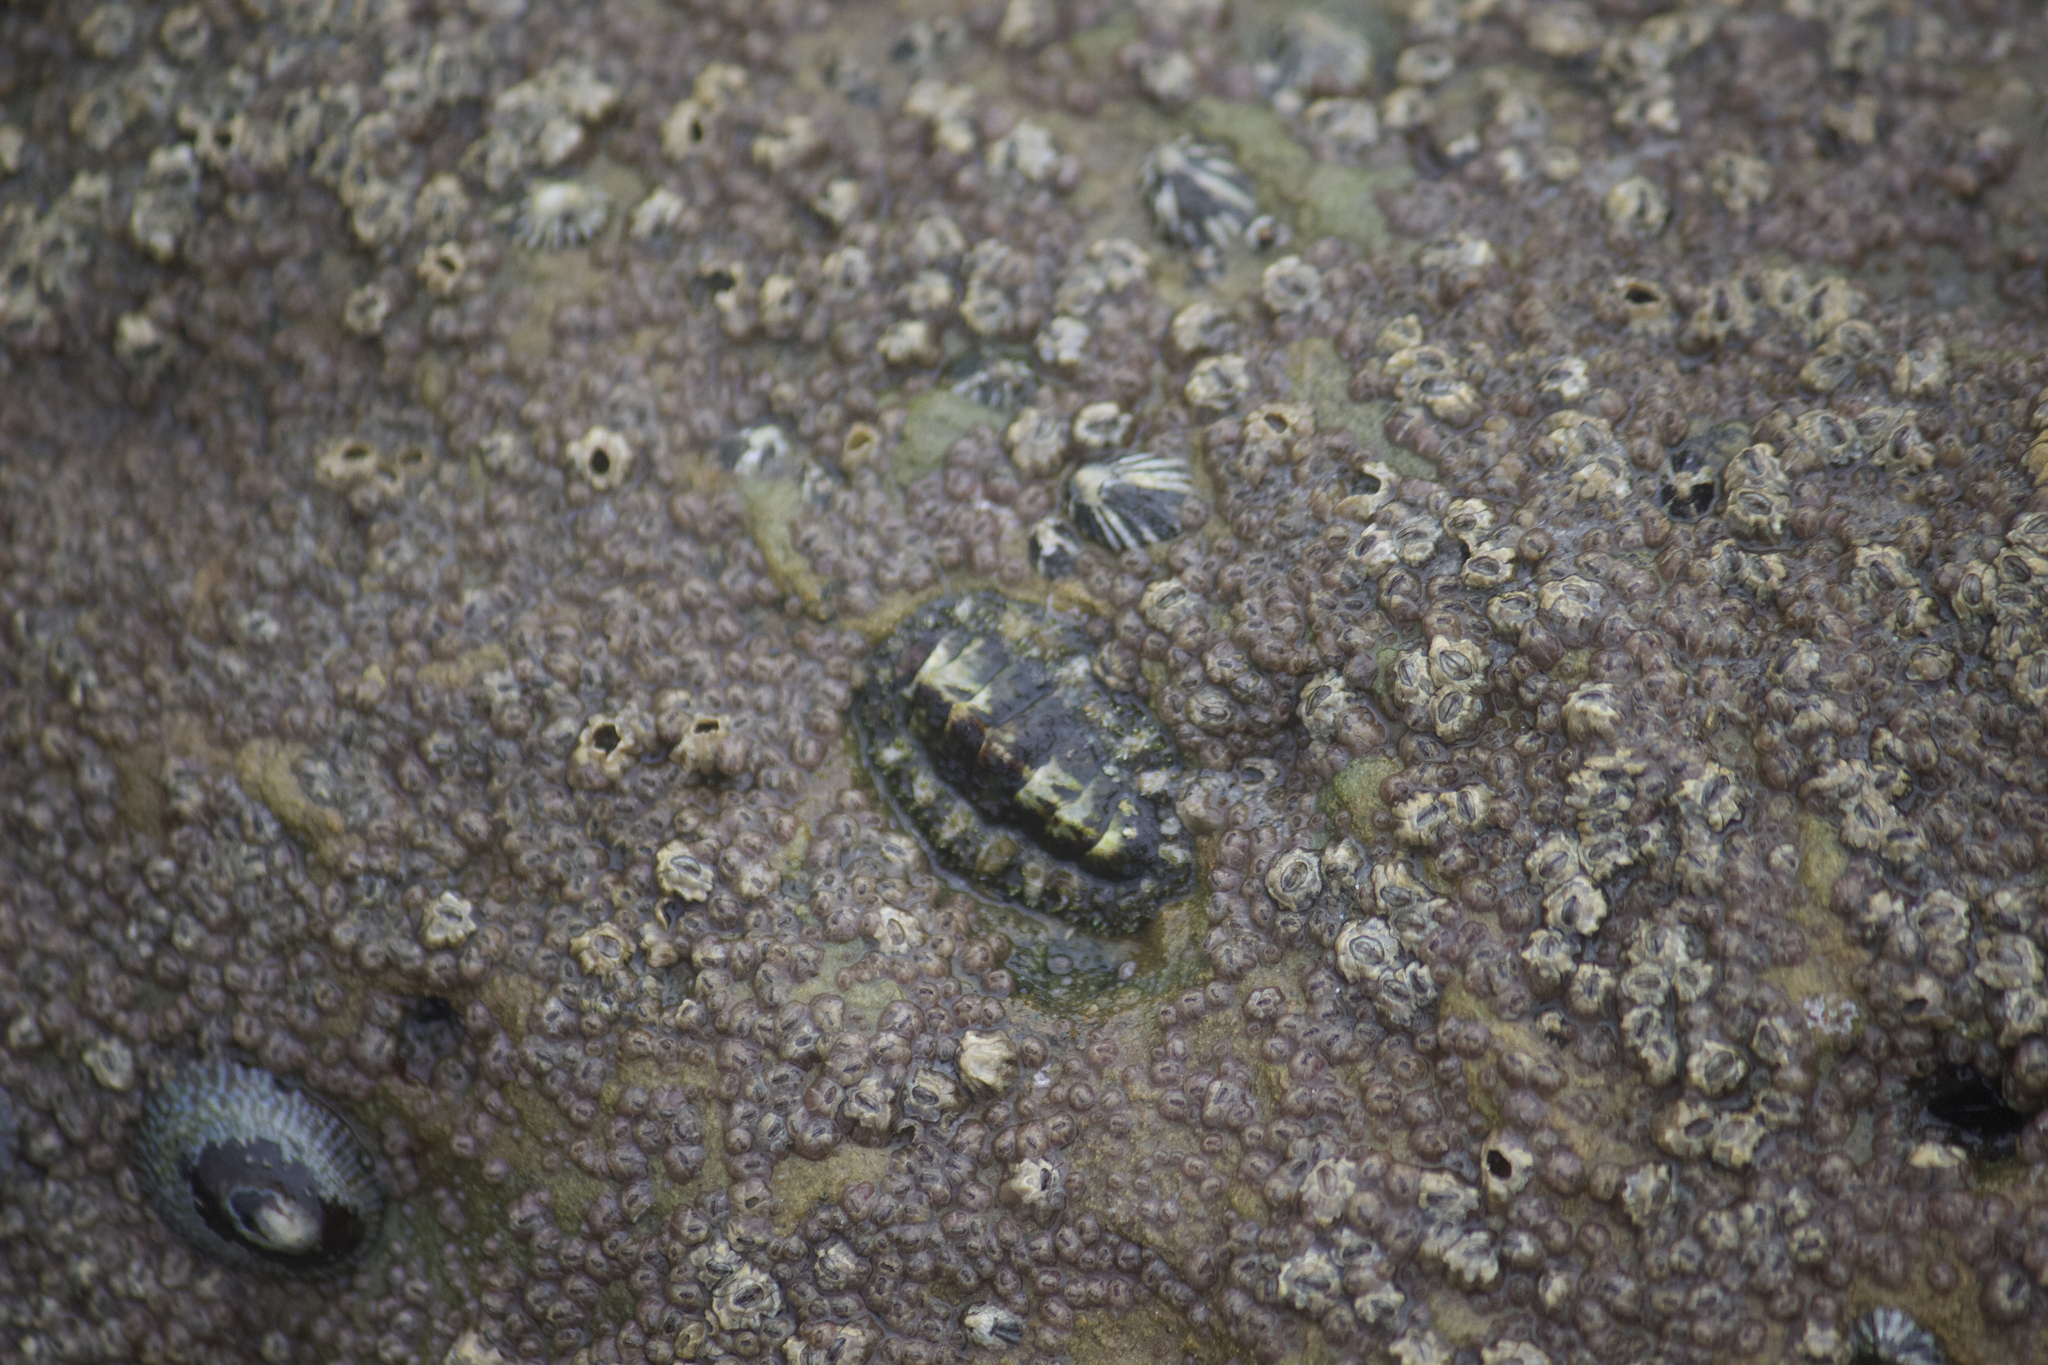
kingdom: Animalia
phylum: Mollusca
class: Polyplacophora
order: Chitonida
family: Tonicellidae
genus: Nuttallina
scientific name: Nuttallina californica
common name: California nuttall chiton
